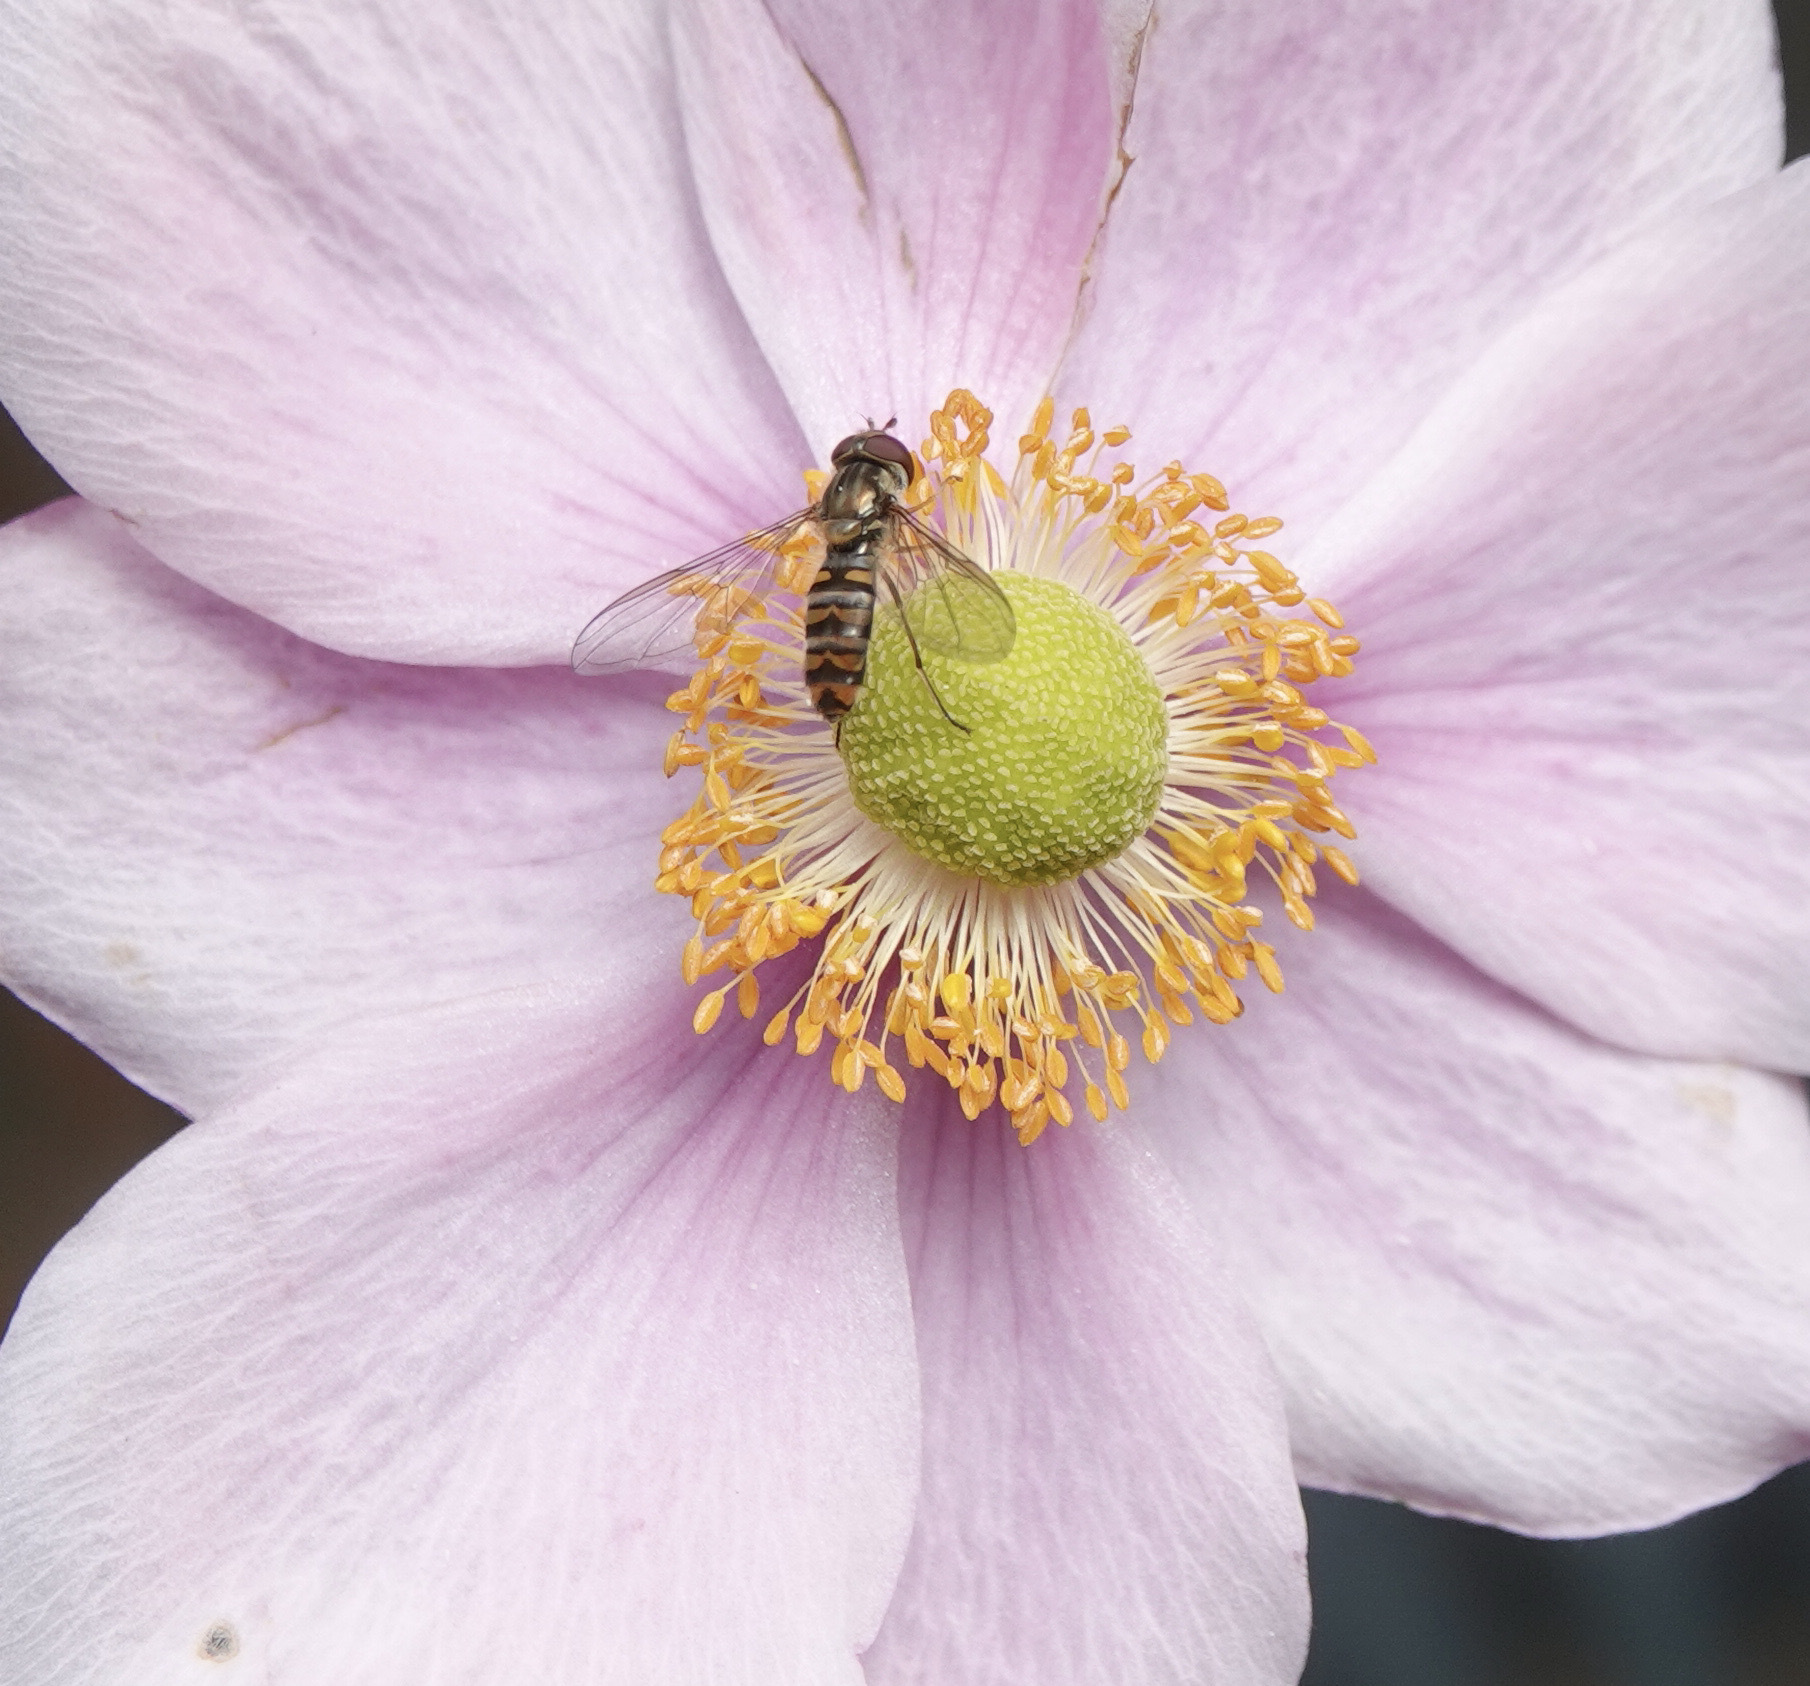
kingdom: Animalia
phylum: Arthropoda
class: Insecta
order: Diptera
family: Syrphidae
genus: Episyrphus
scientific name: Episyrphus balteatus
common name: Marmalade hoverfly
